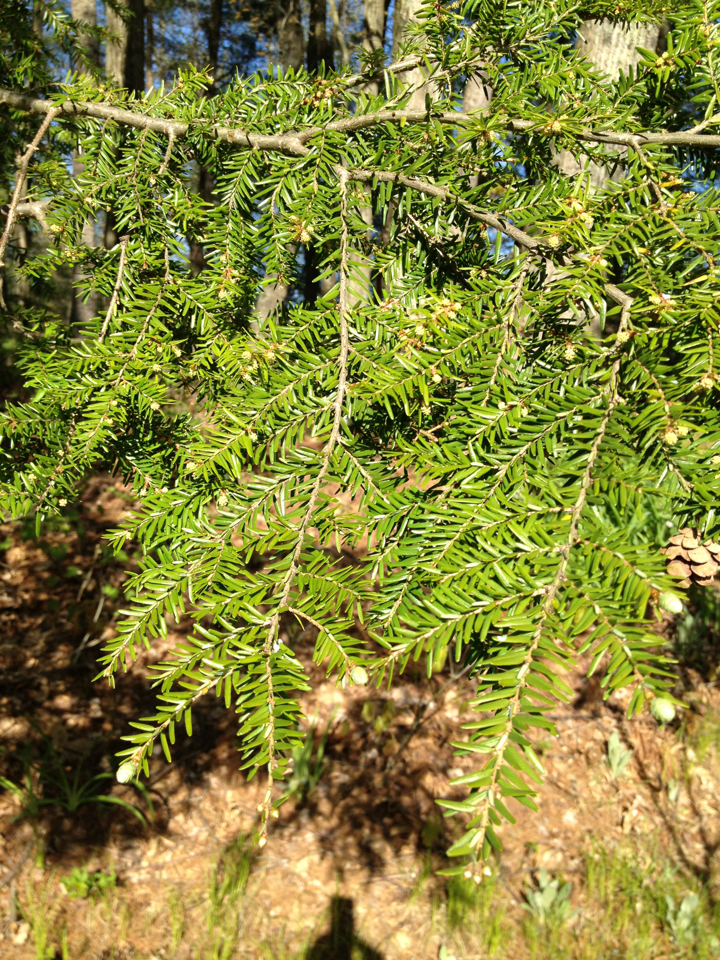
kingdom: Plantae
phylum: Tracheophyta
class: Pinopsida
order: Pinales
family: Pinaceae
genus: Tsuga
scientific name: Tsuga canadensis
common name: Eastern hemlock
